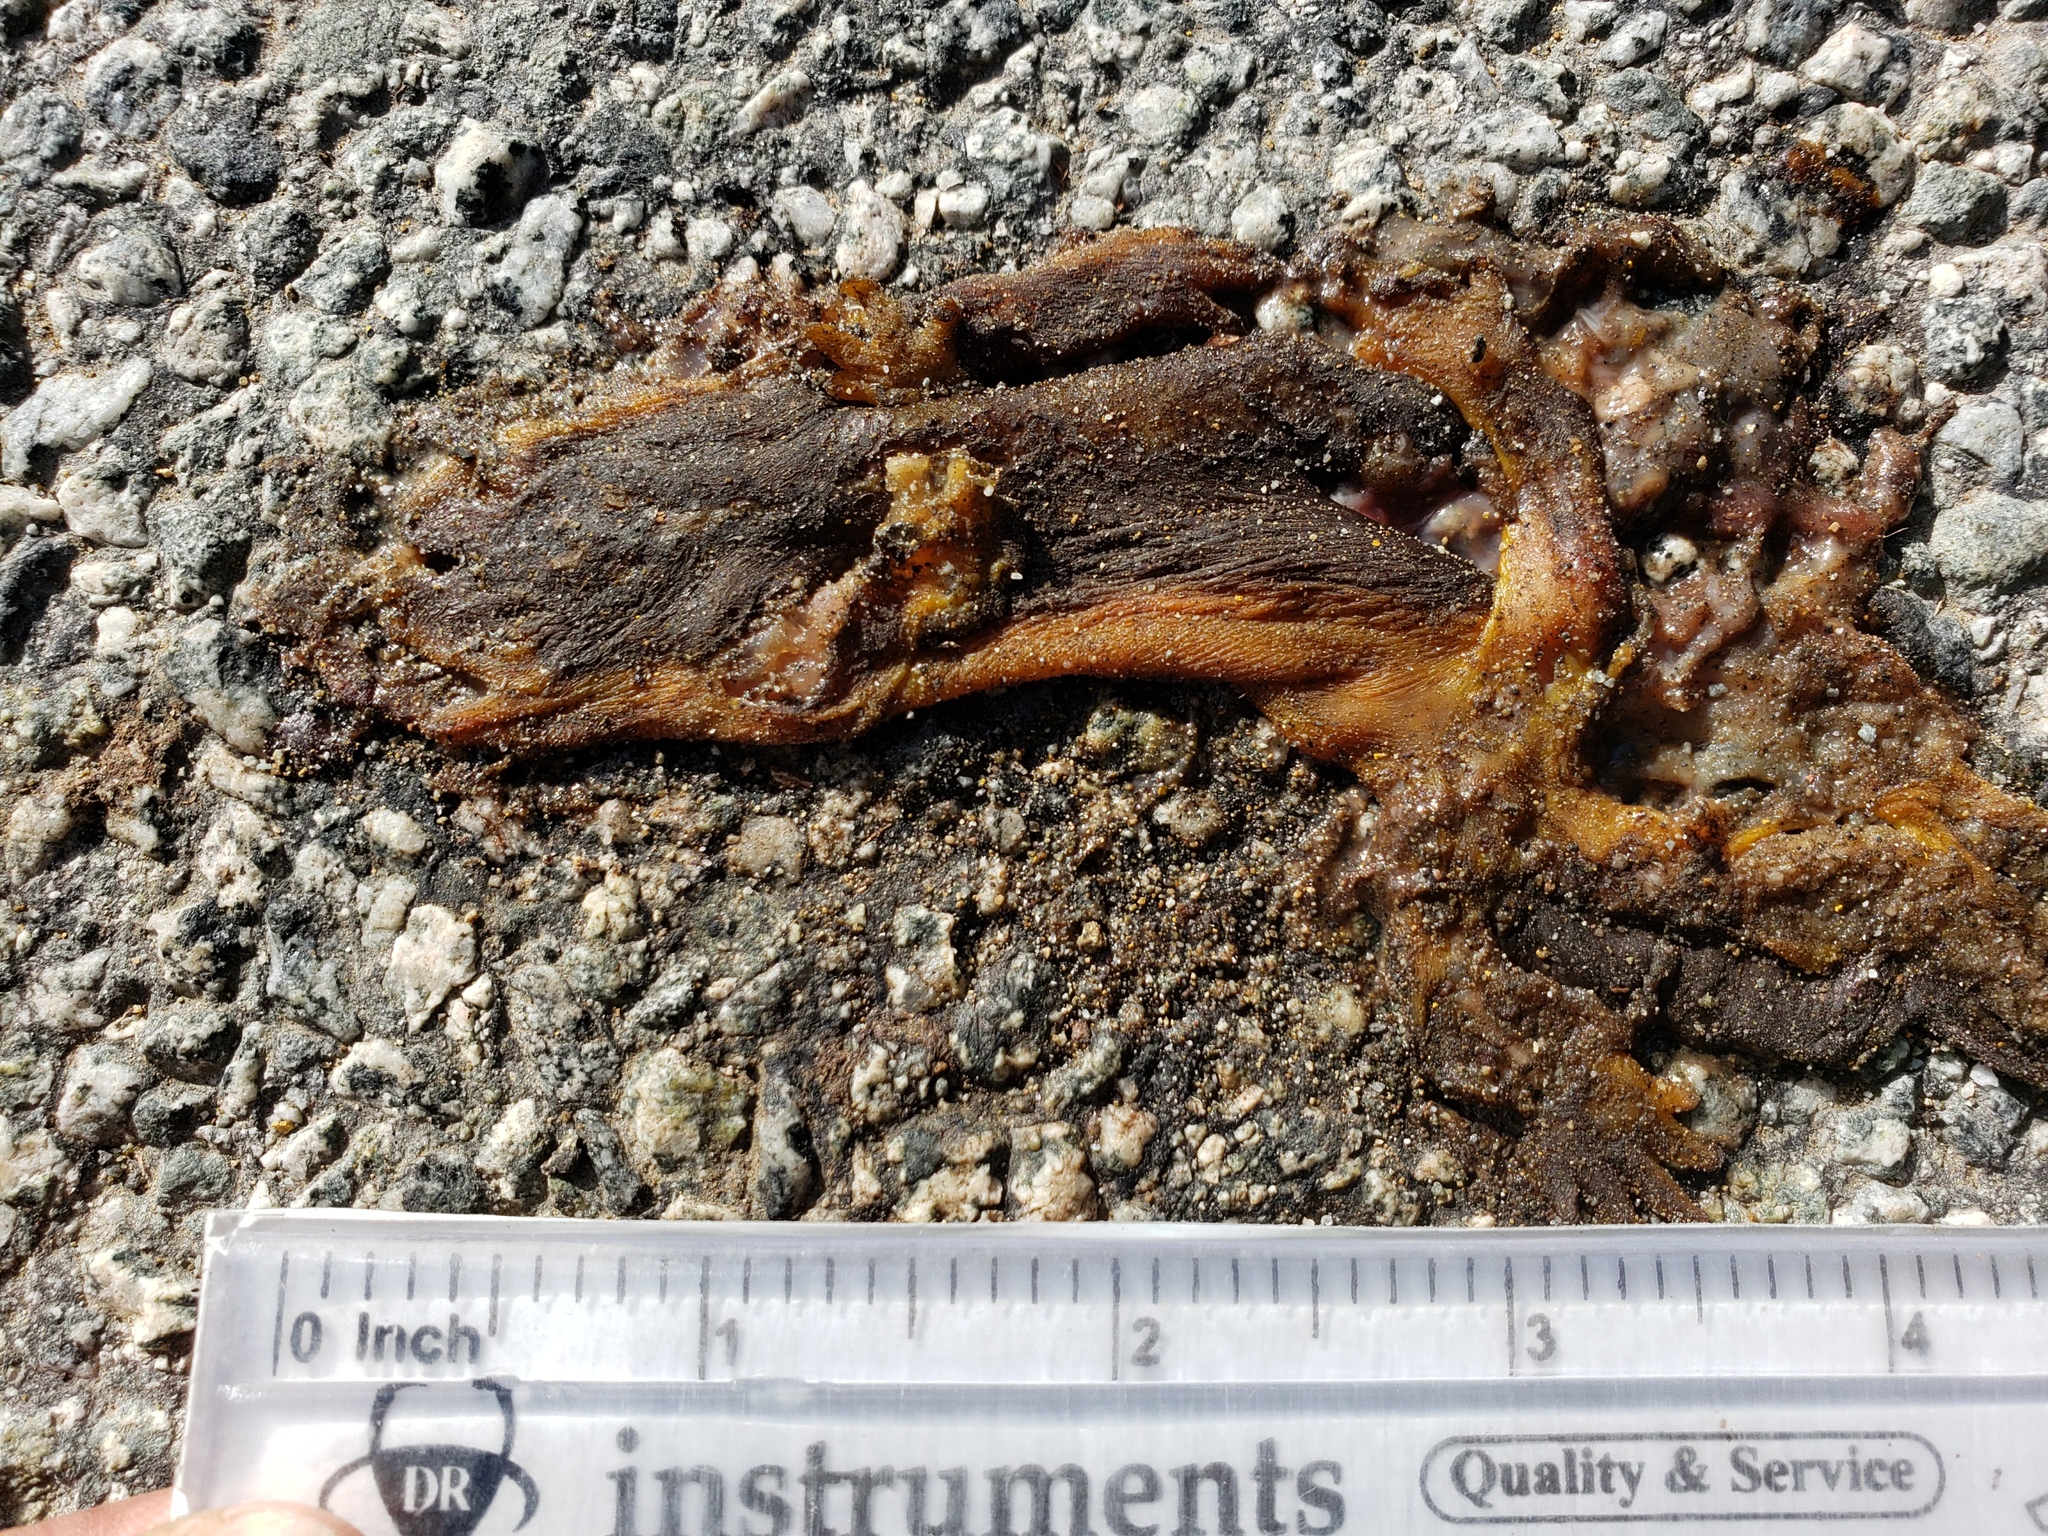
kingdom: Animalia
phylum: Chordata
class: Amphibia
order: Caudata
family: Salamandridae
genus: Taricha
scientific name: Taricha
